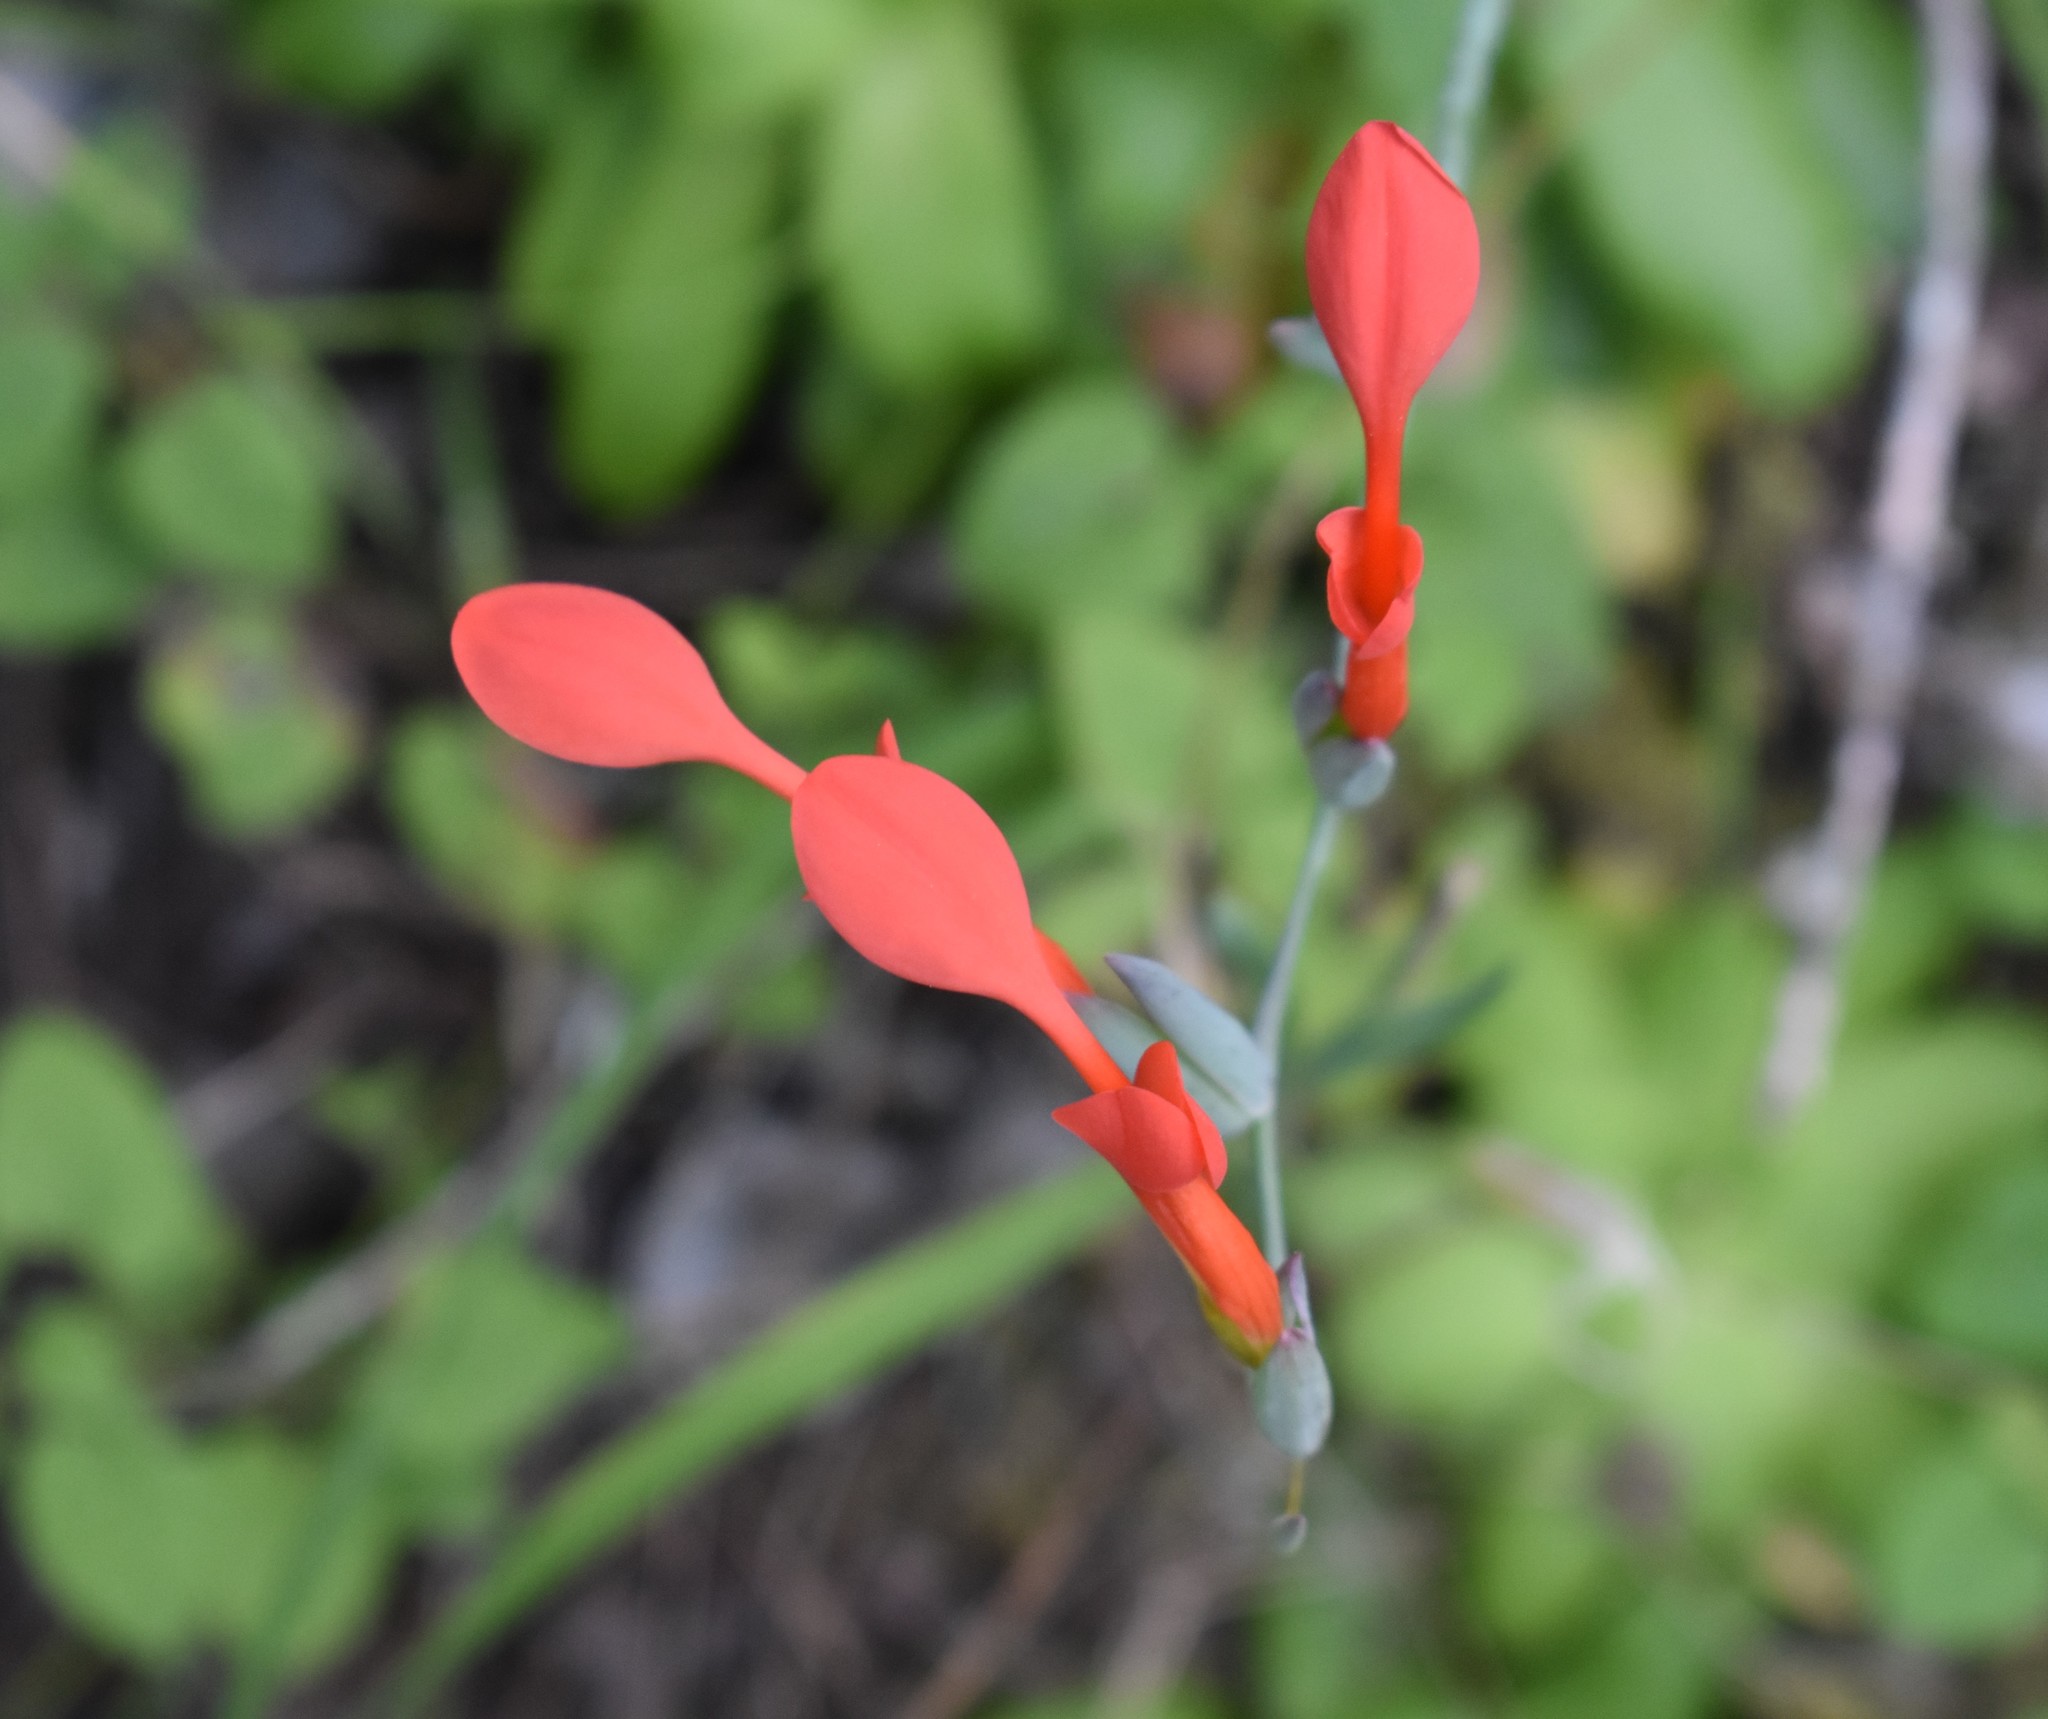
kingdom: Plantae
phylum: Tracheophyta
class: Liliopsida
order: Asparagales
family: Iridaceae
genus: Gladiolus
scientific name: Gladiolus cunonius
